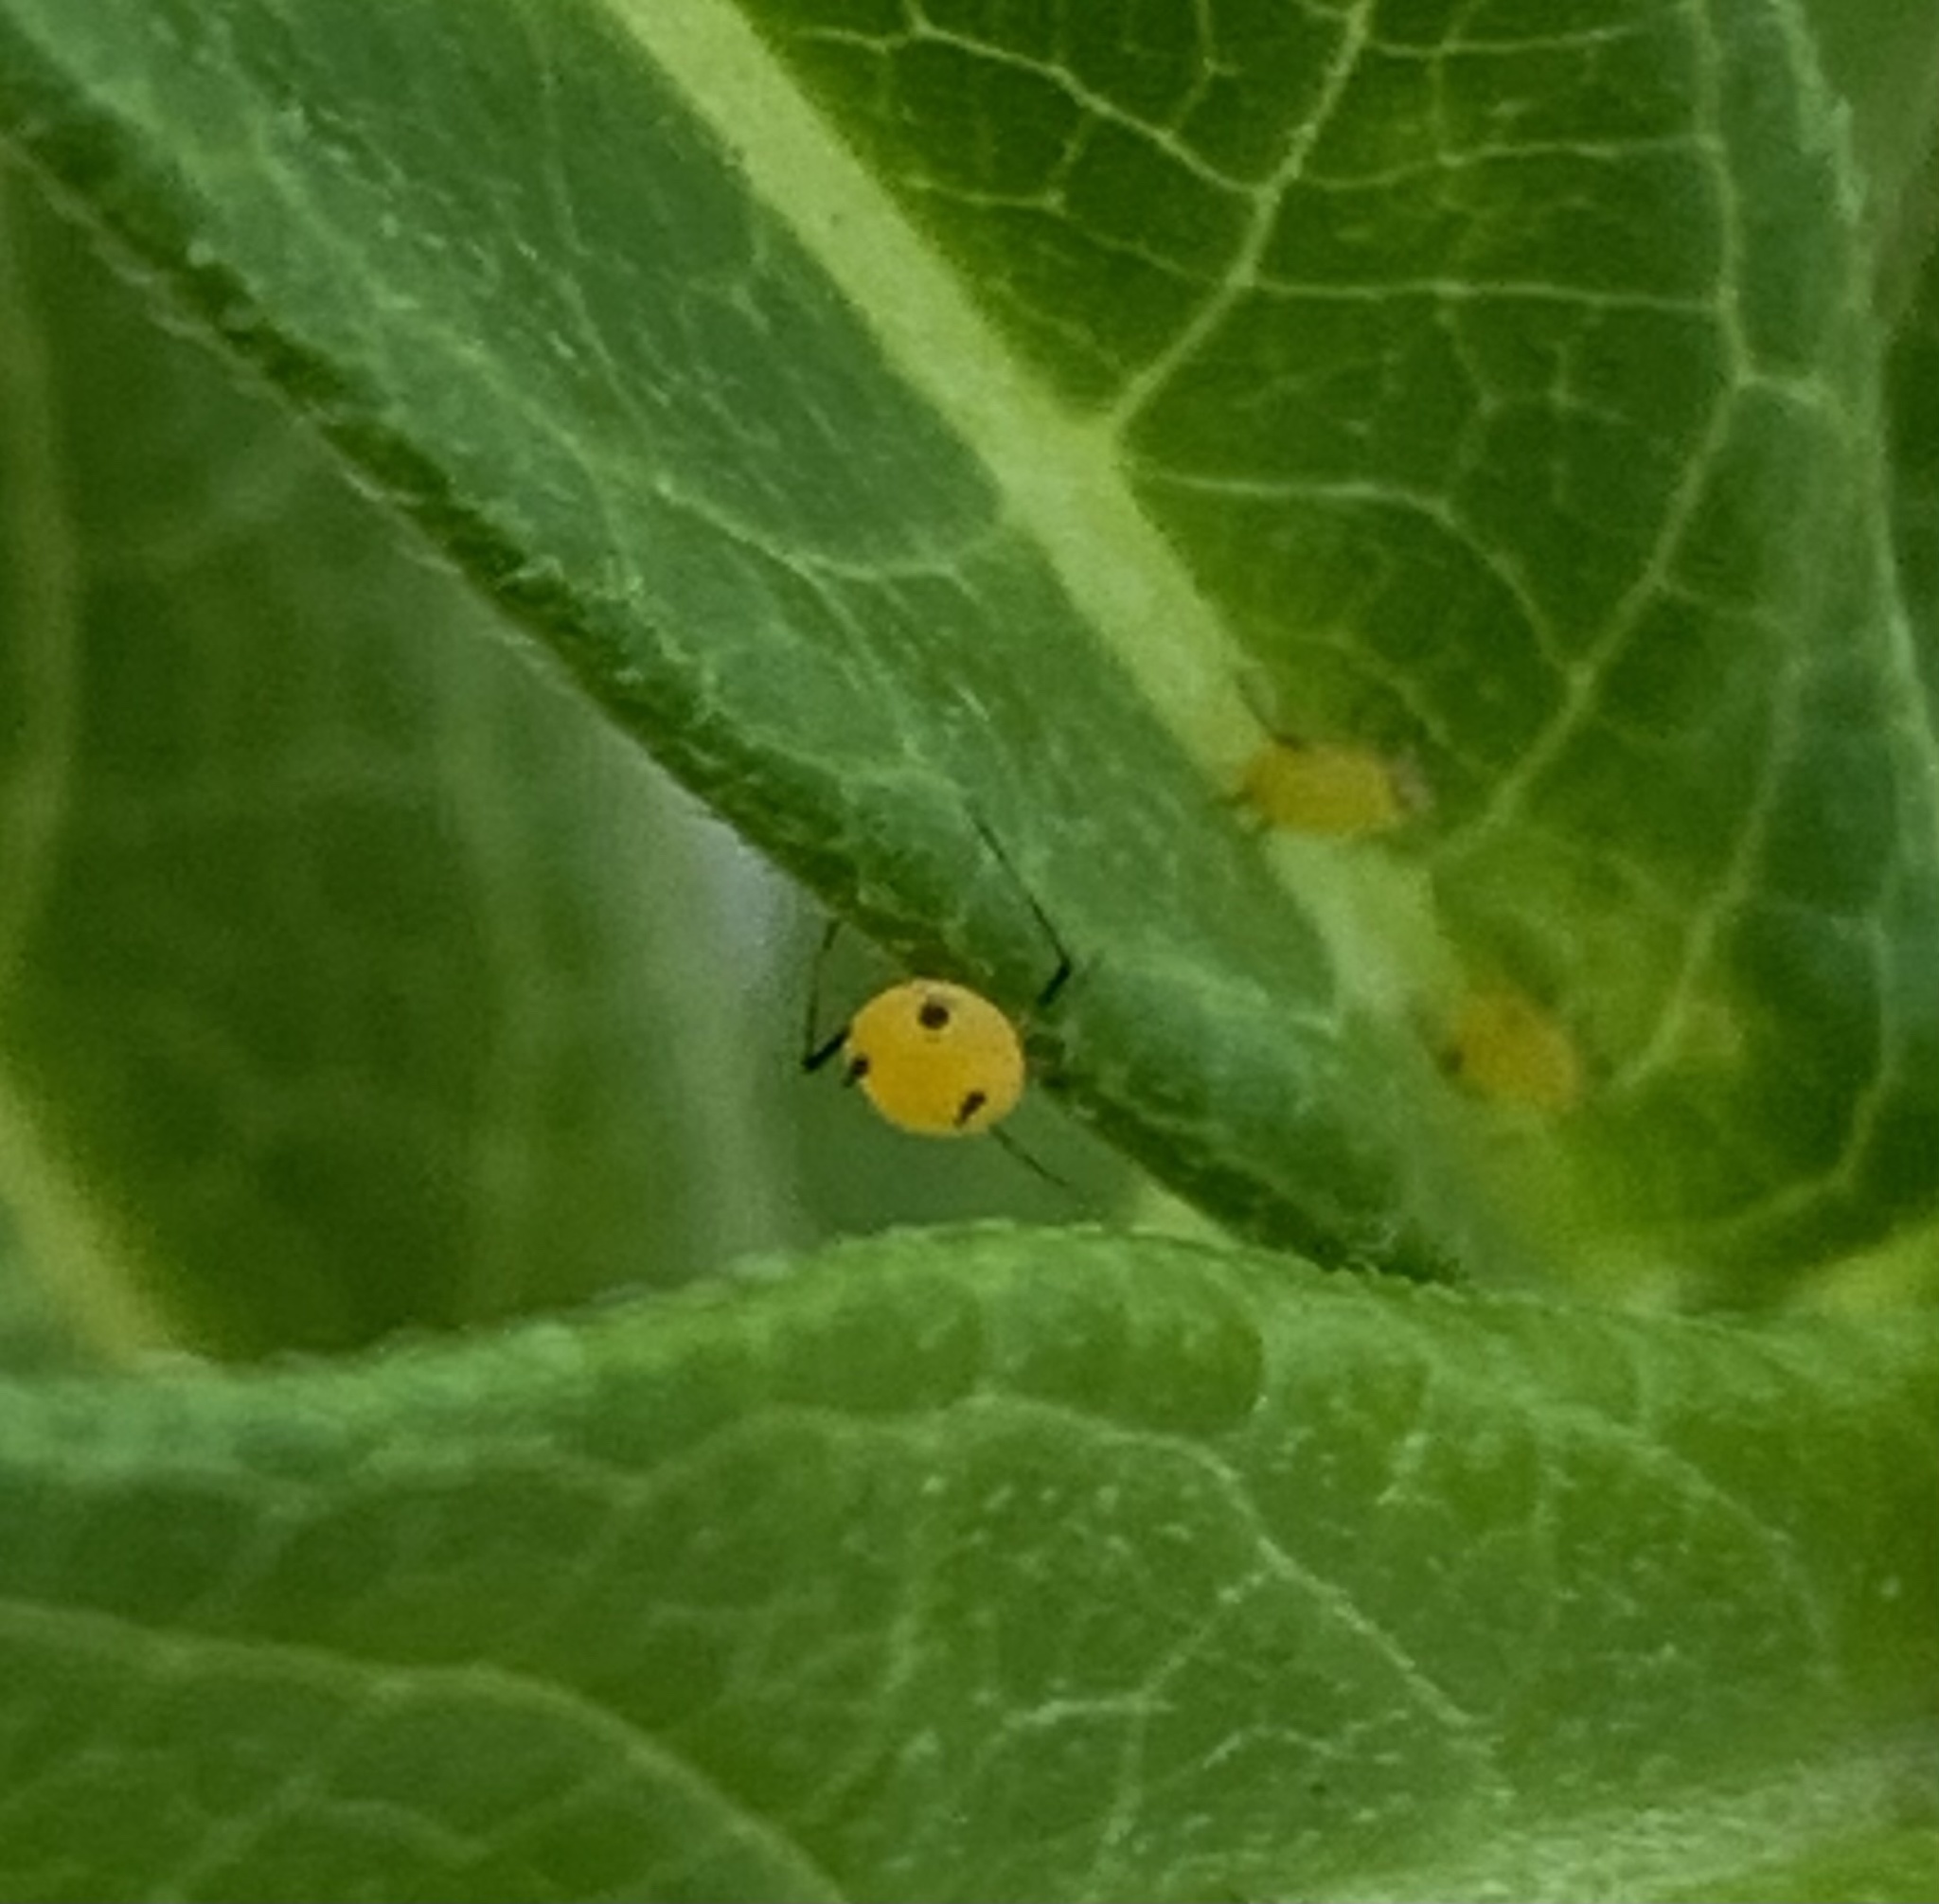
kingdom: Animalia
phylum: Arthropoda
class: Insecta
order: Hemiptera
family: Aphididae
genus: Aphis
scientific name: Aphis nerii
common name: Oleander aphid
